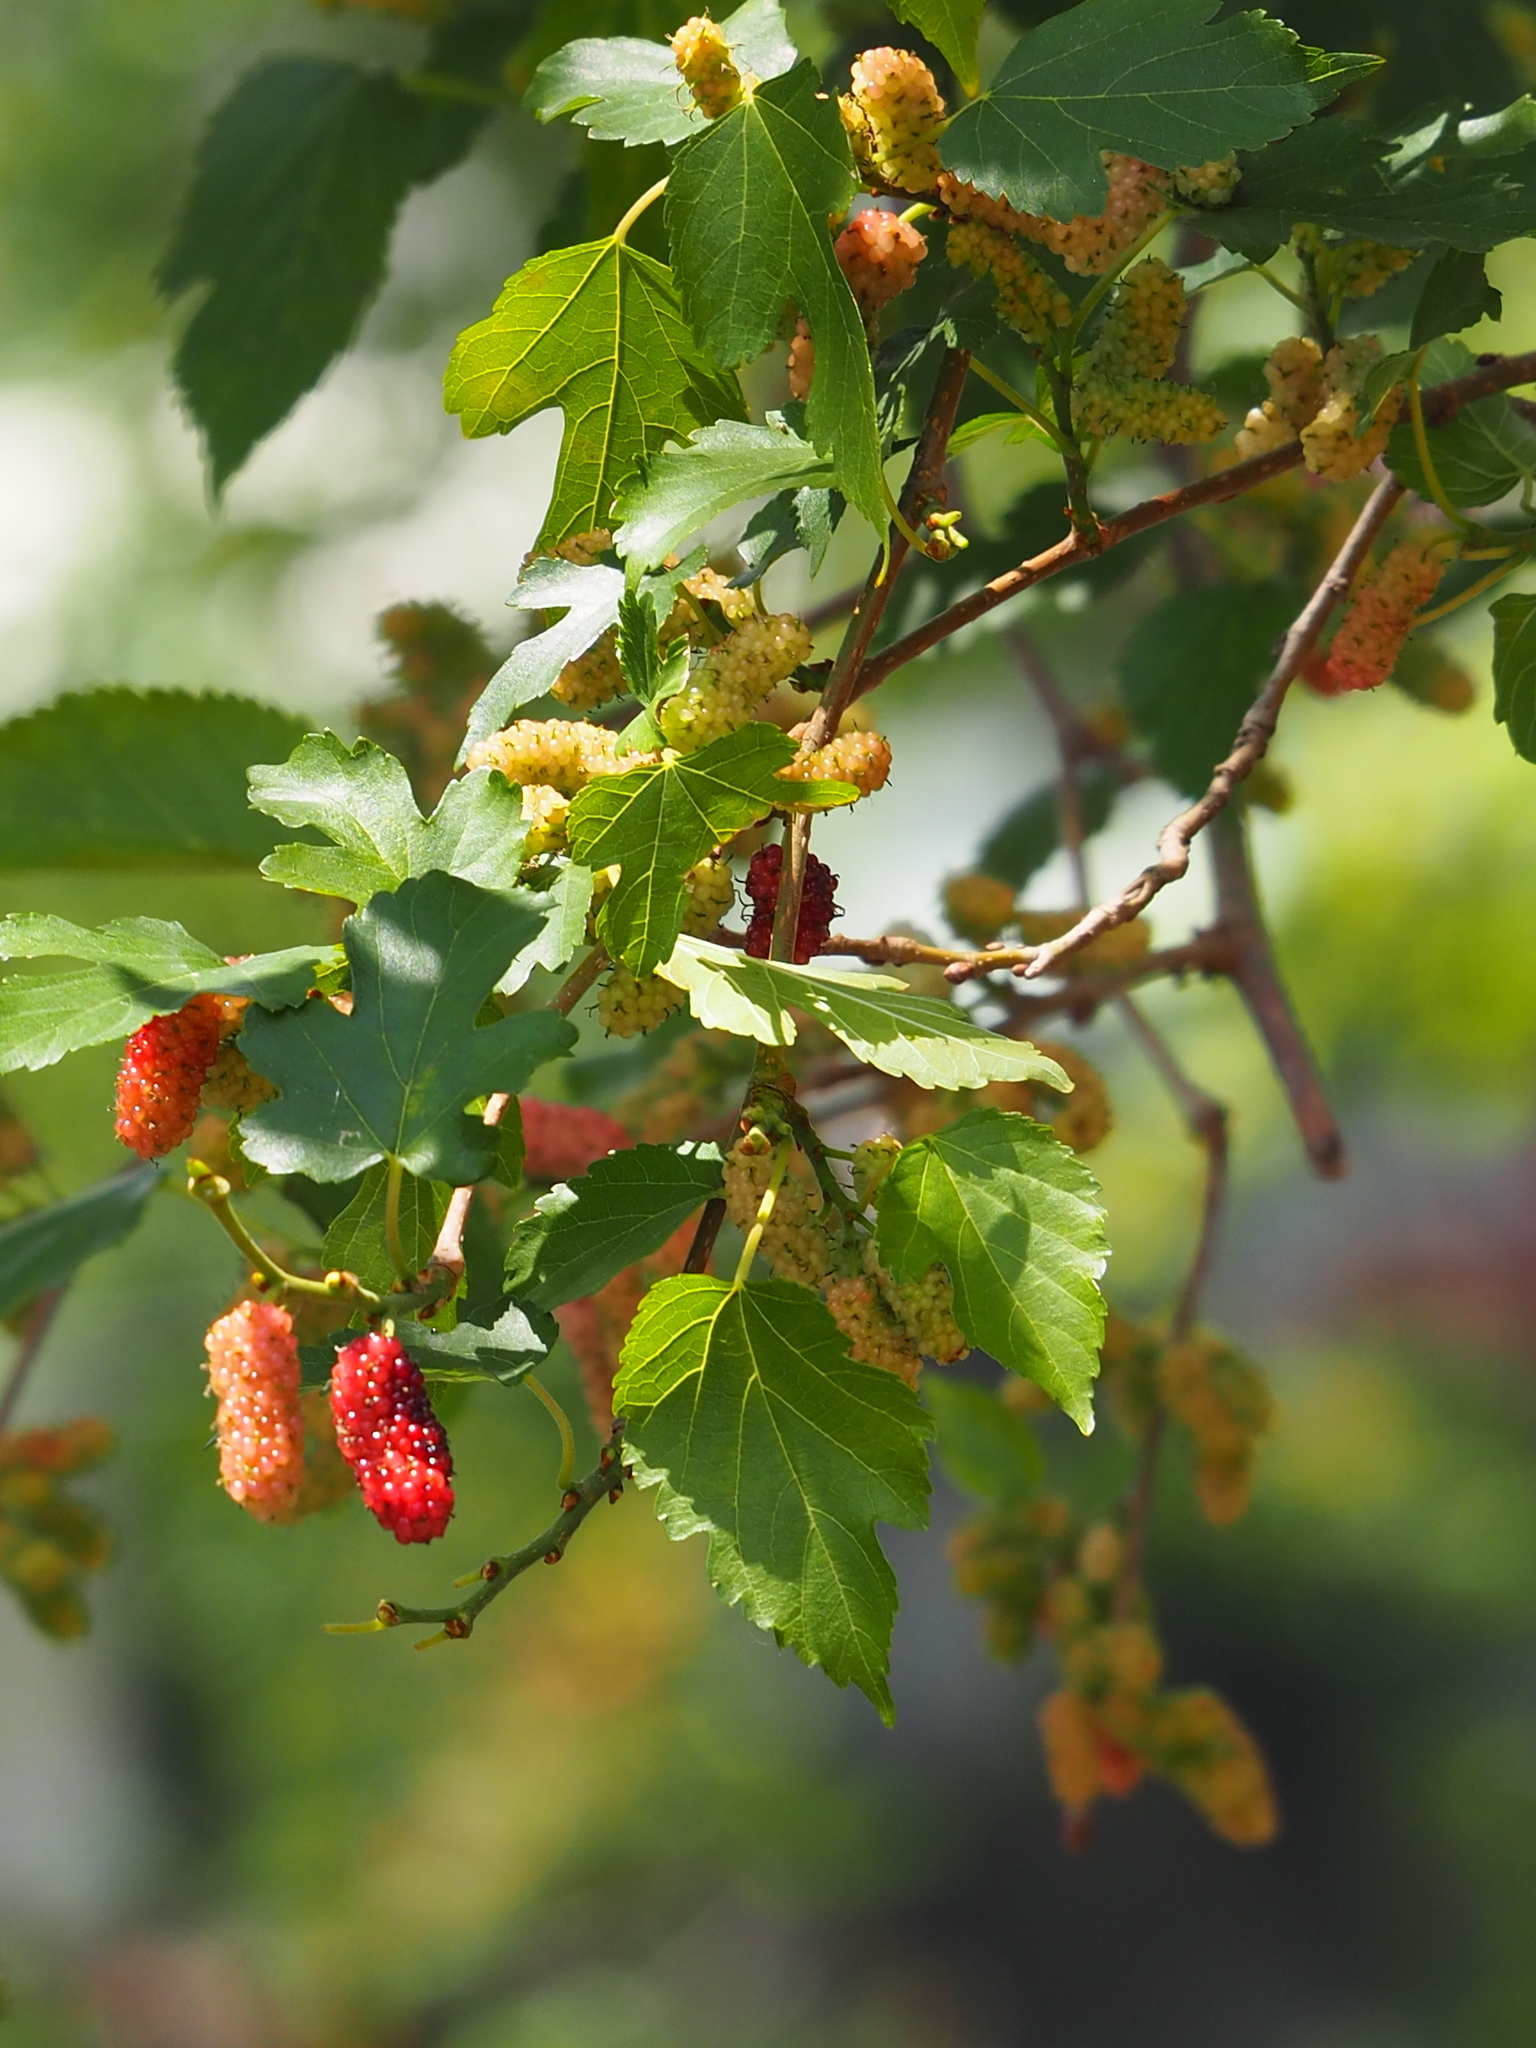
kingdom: Plantae
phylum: Tracheophyta
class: Magnoliopsida
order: Rosales
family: Moraceae
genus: Morus
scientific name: Morus indica
